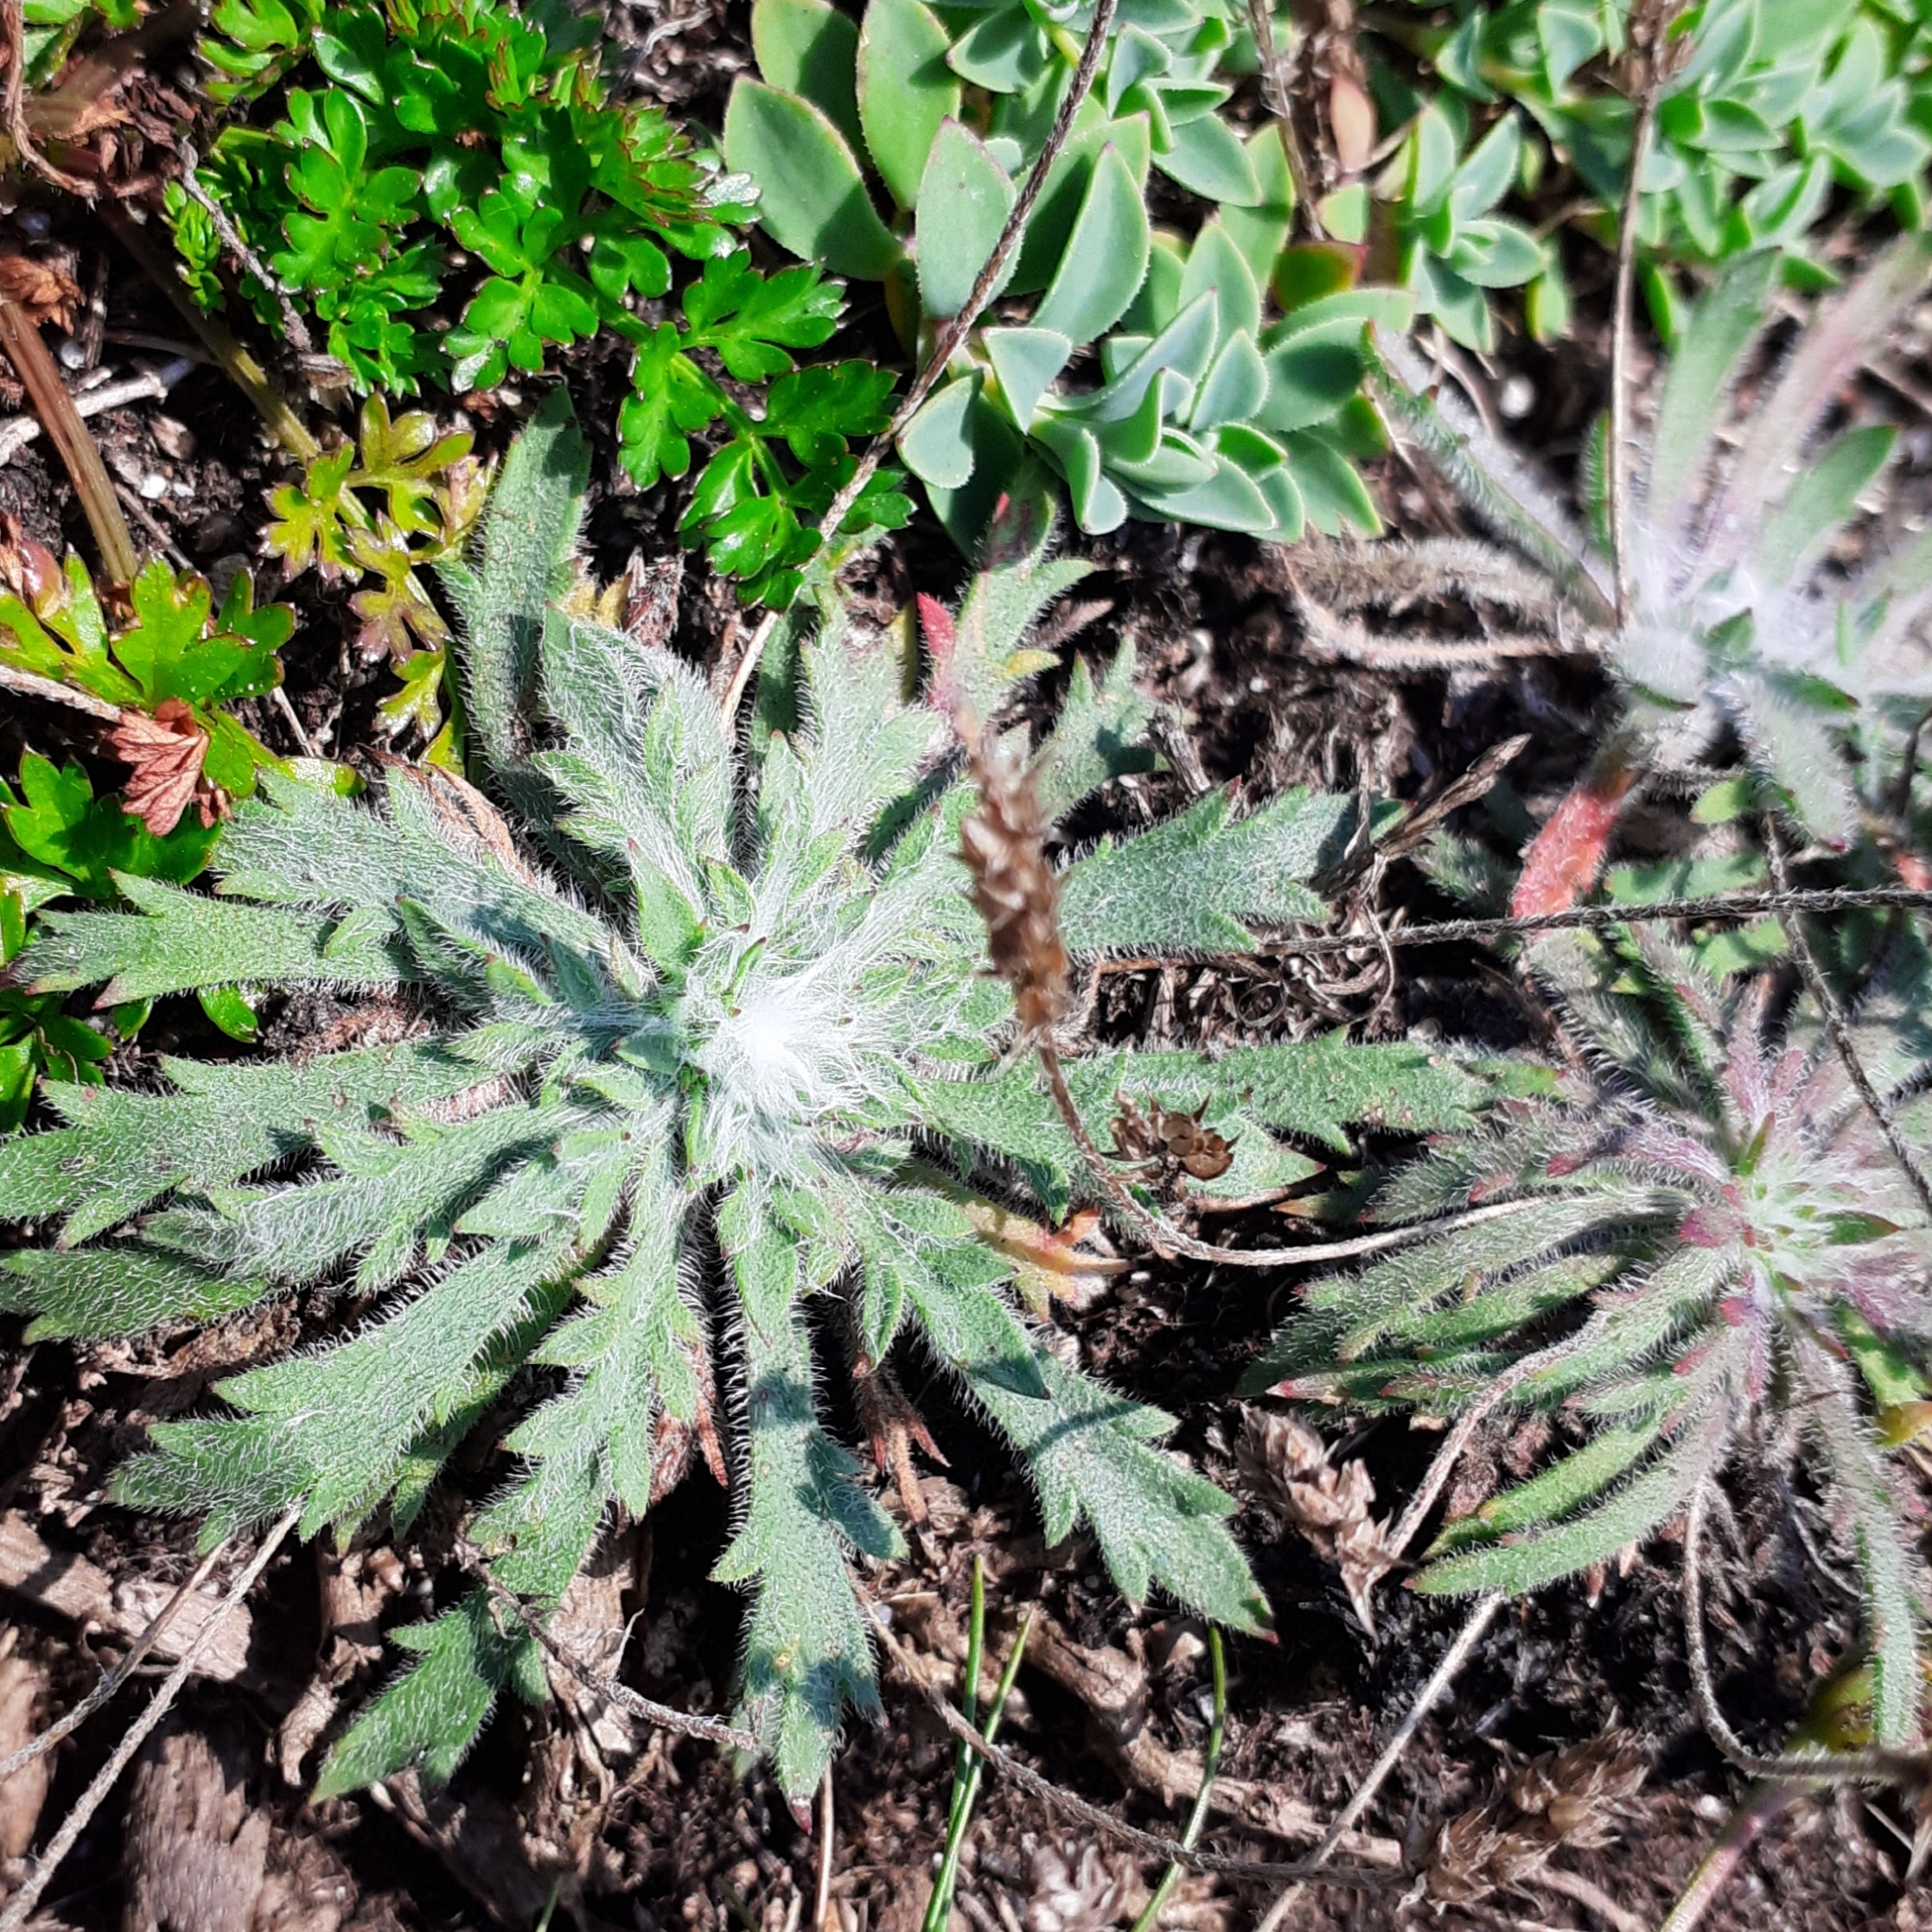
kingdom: Plantae
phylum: Tracheophyta
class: Magnoliopsida
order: Lamiales
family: Plantaginaceae
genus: Plantago
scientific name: Plantago coronopus
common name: Buck's-horn plantain
